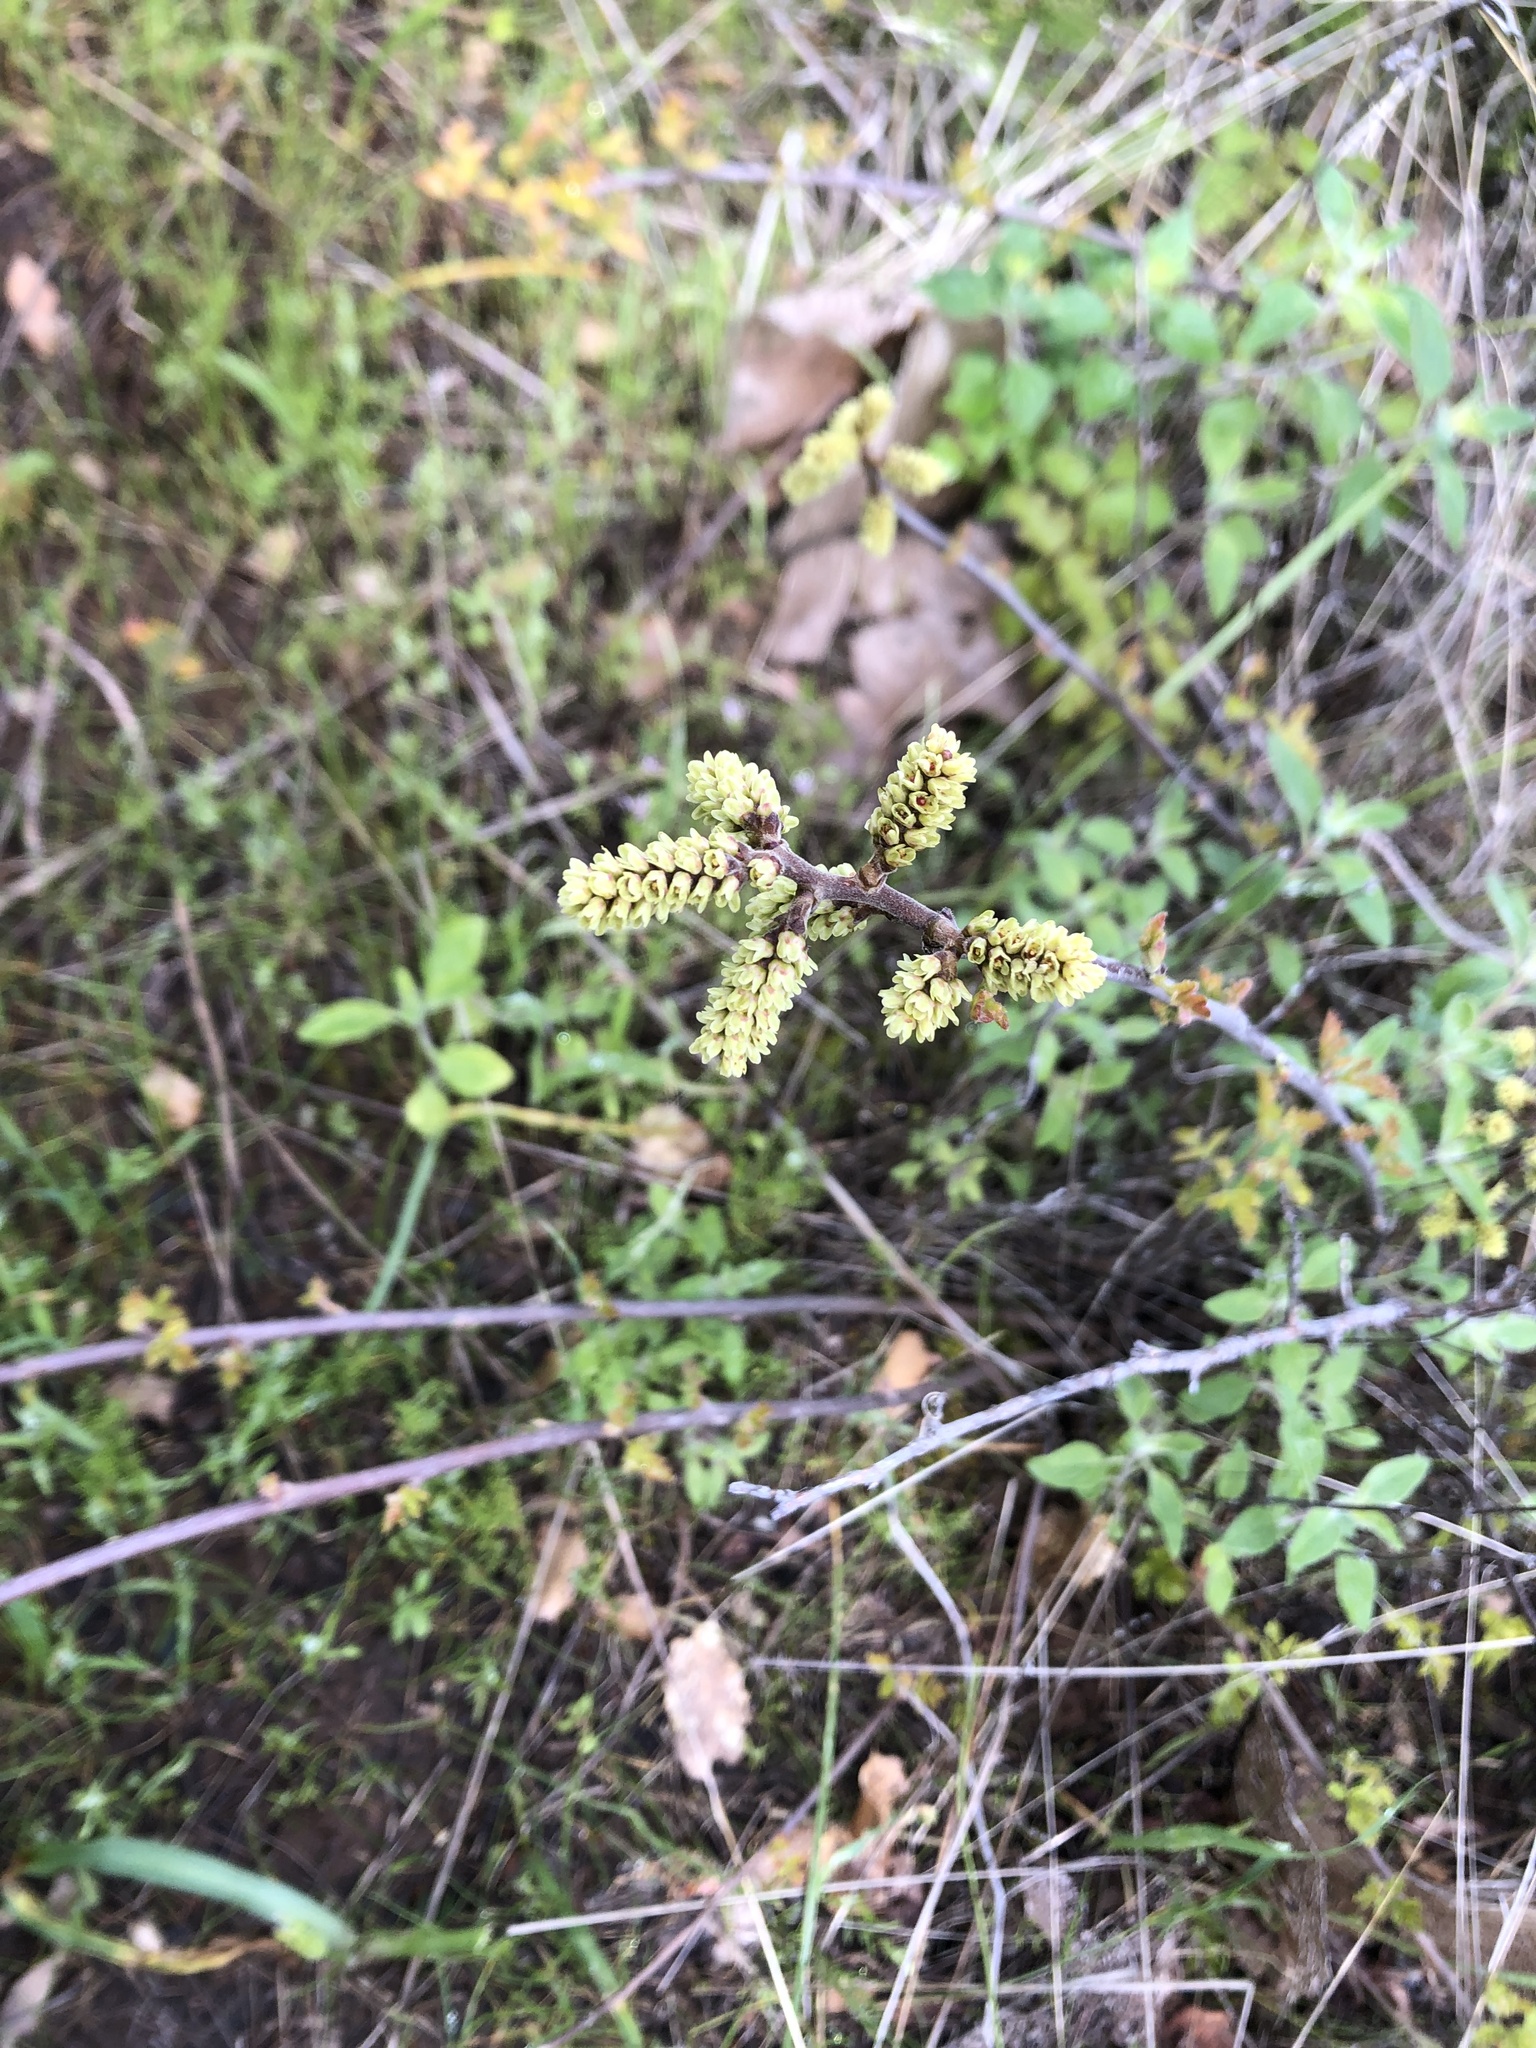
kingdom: Plantae
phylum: Tracheophyta
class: Magnoliopsida
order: Sapindales
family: Anacardiaceae
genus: Rhus
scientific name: Rhus aromatica
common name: Aromatic sumac
